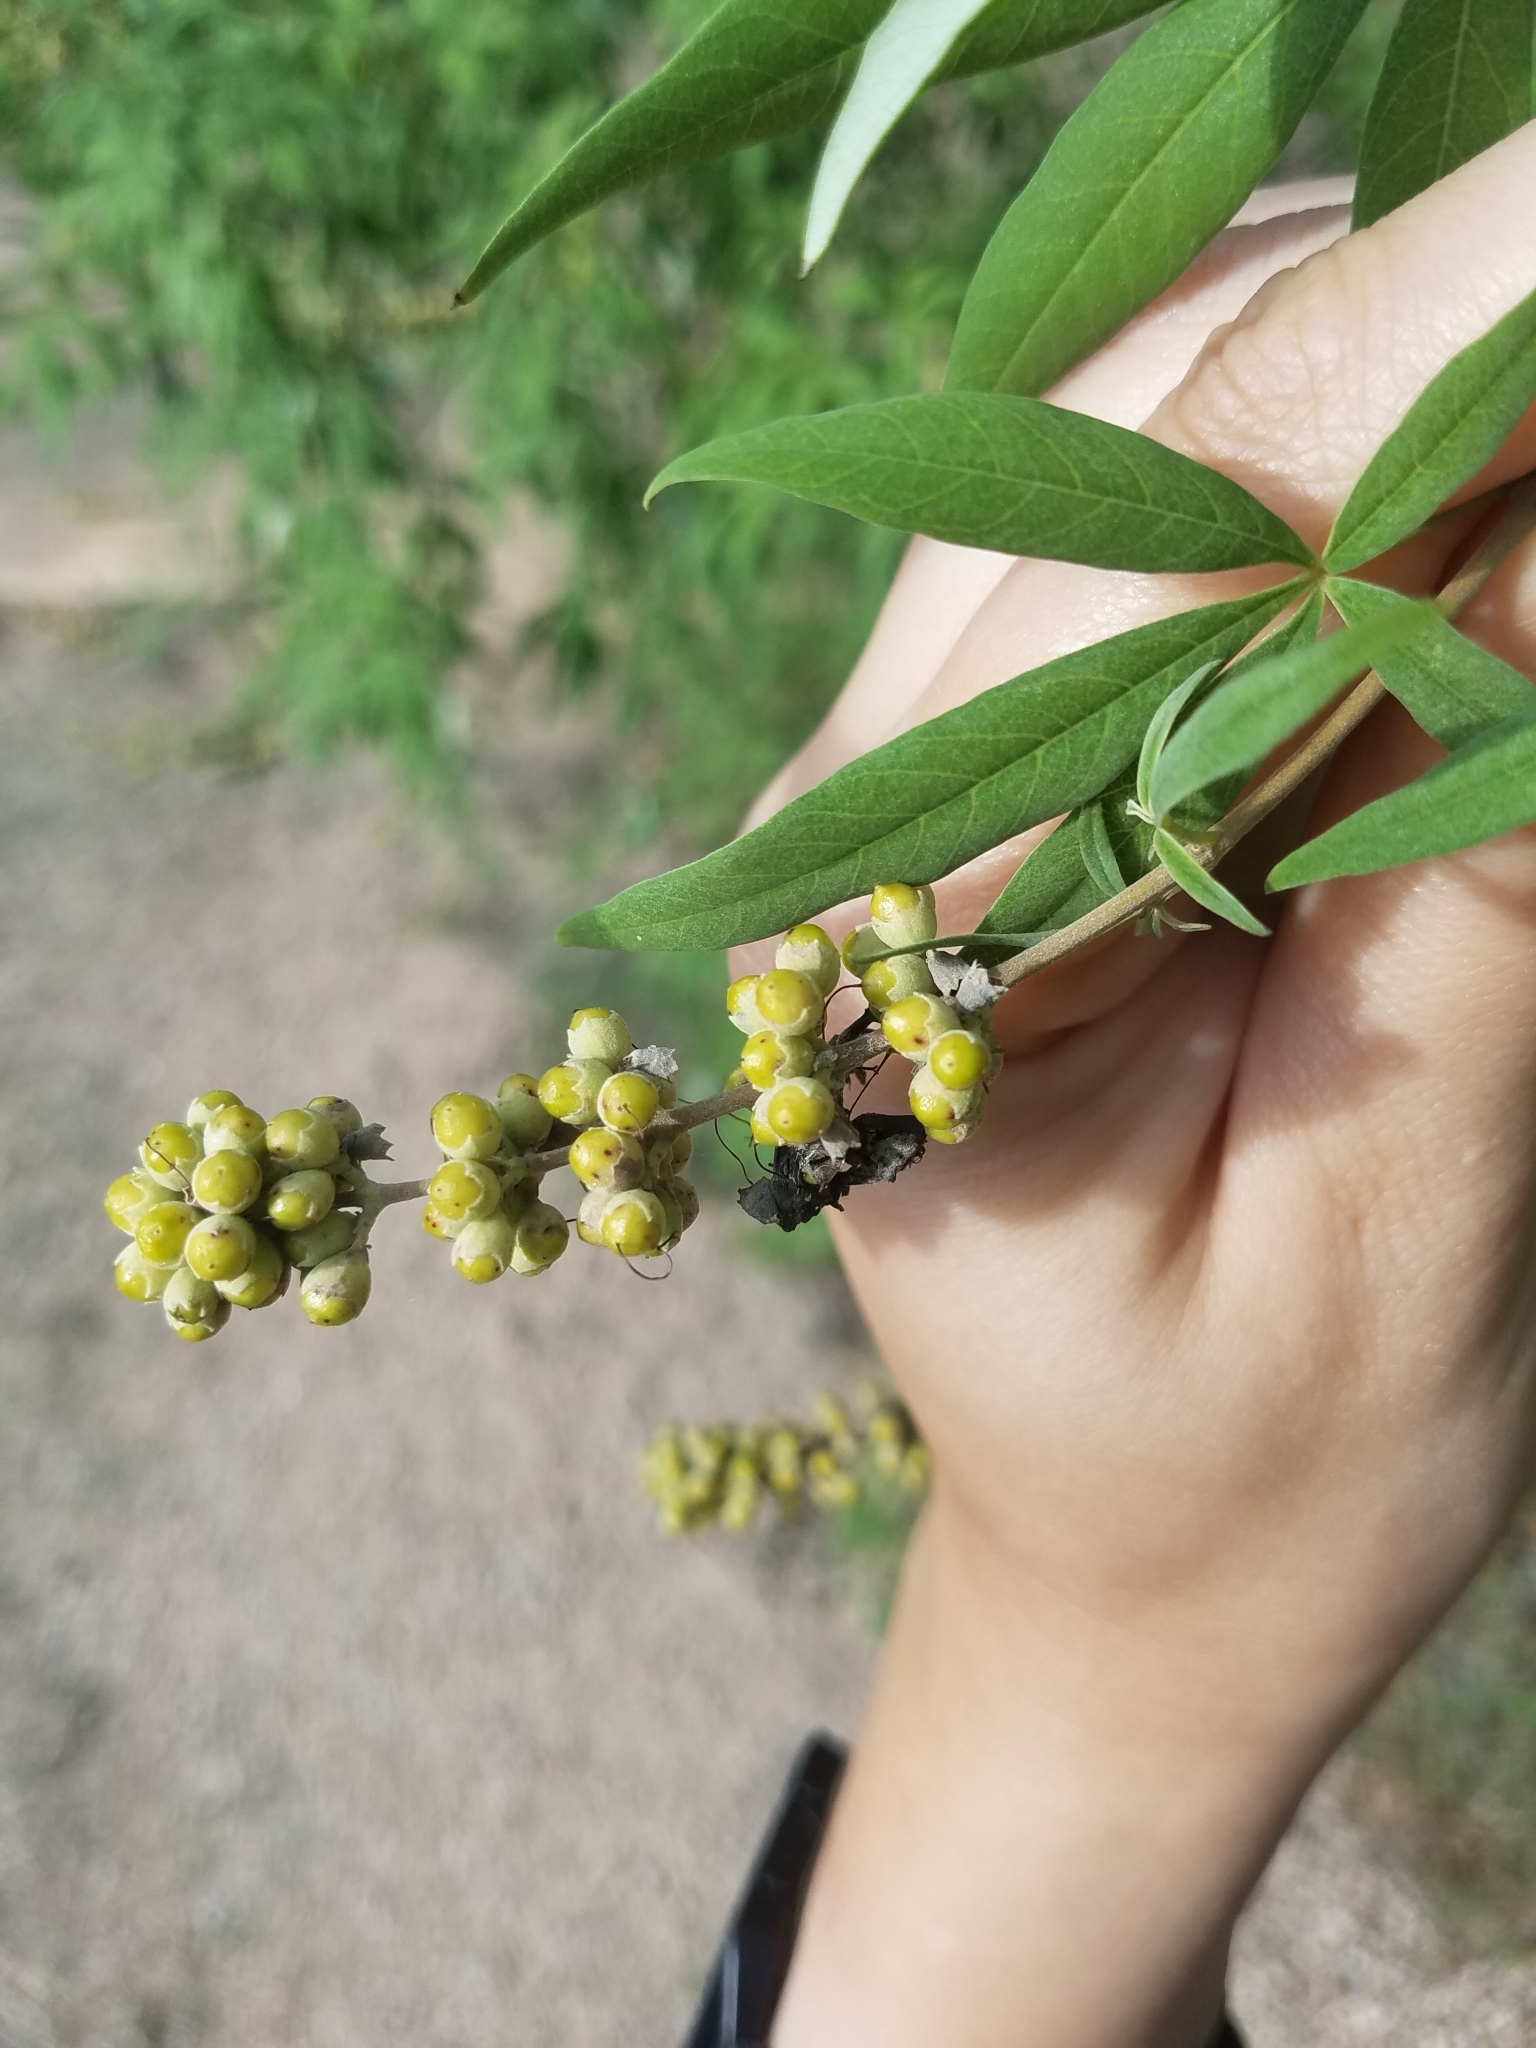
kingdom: Plantae
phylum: Tracheophyta
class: Magnoliopsida
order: Lamiales
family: Lamiaceae
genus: Vitex
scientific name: Vitex agnus-castus
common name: Chasteberry
